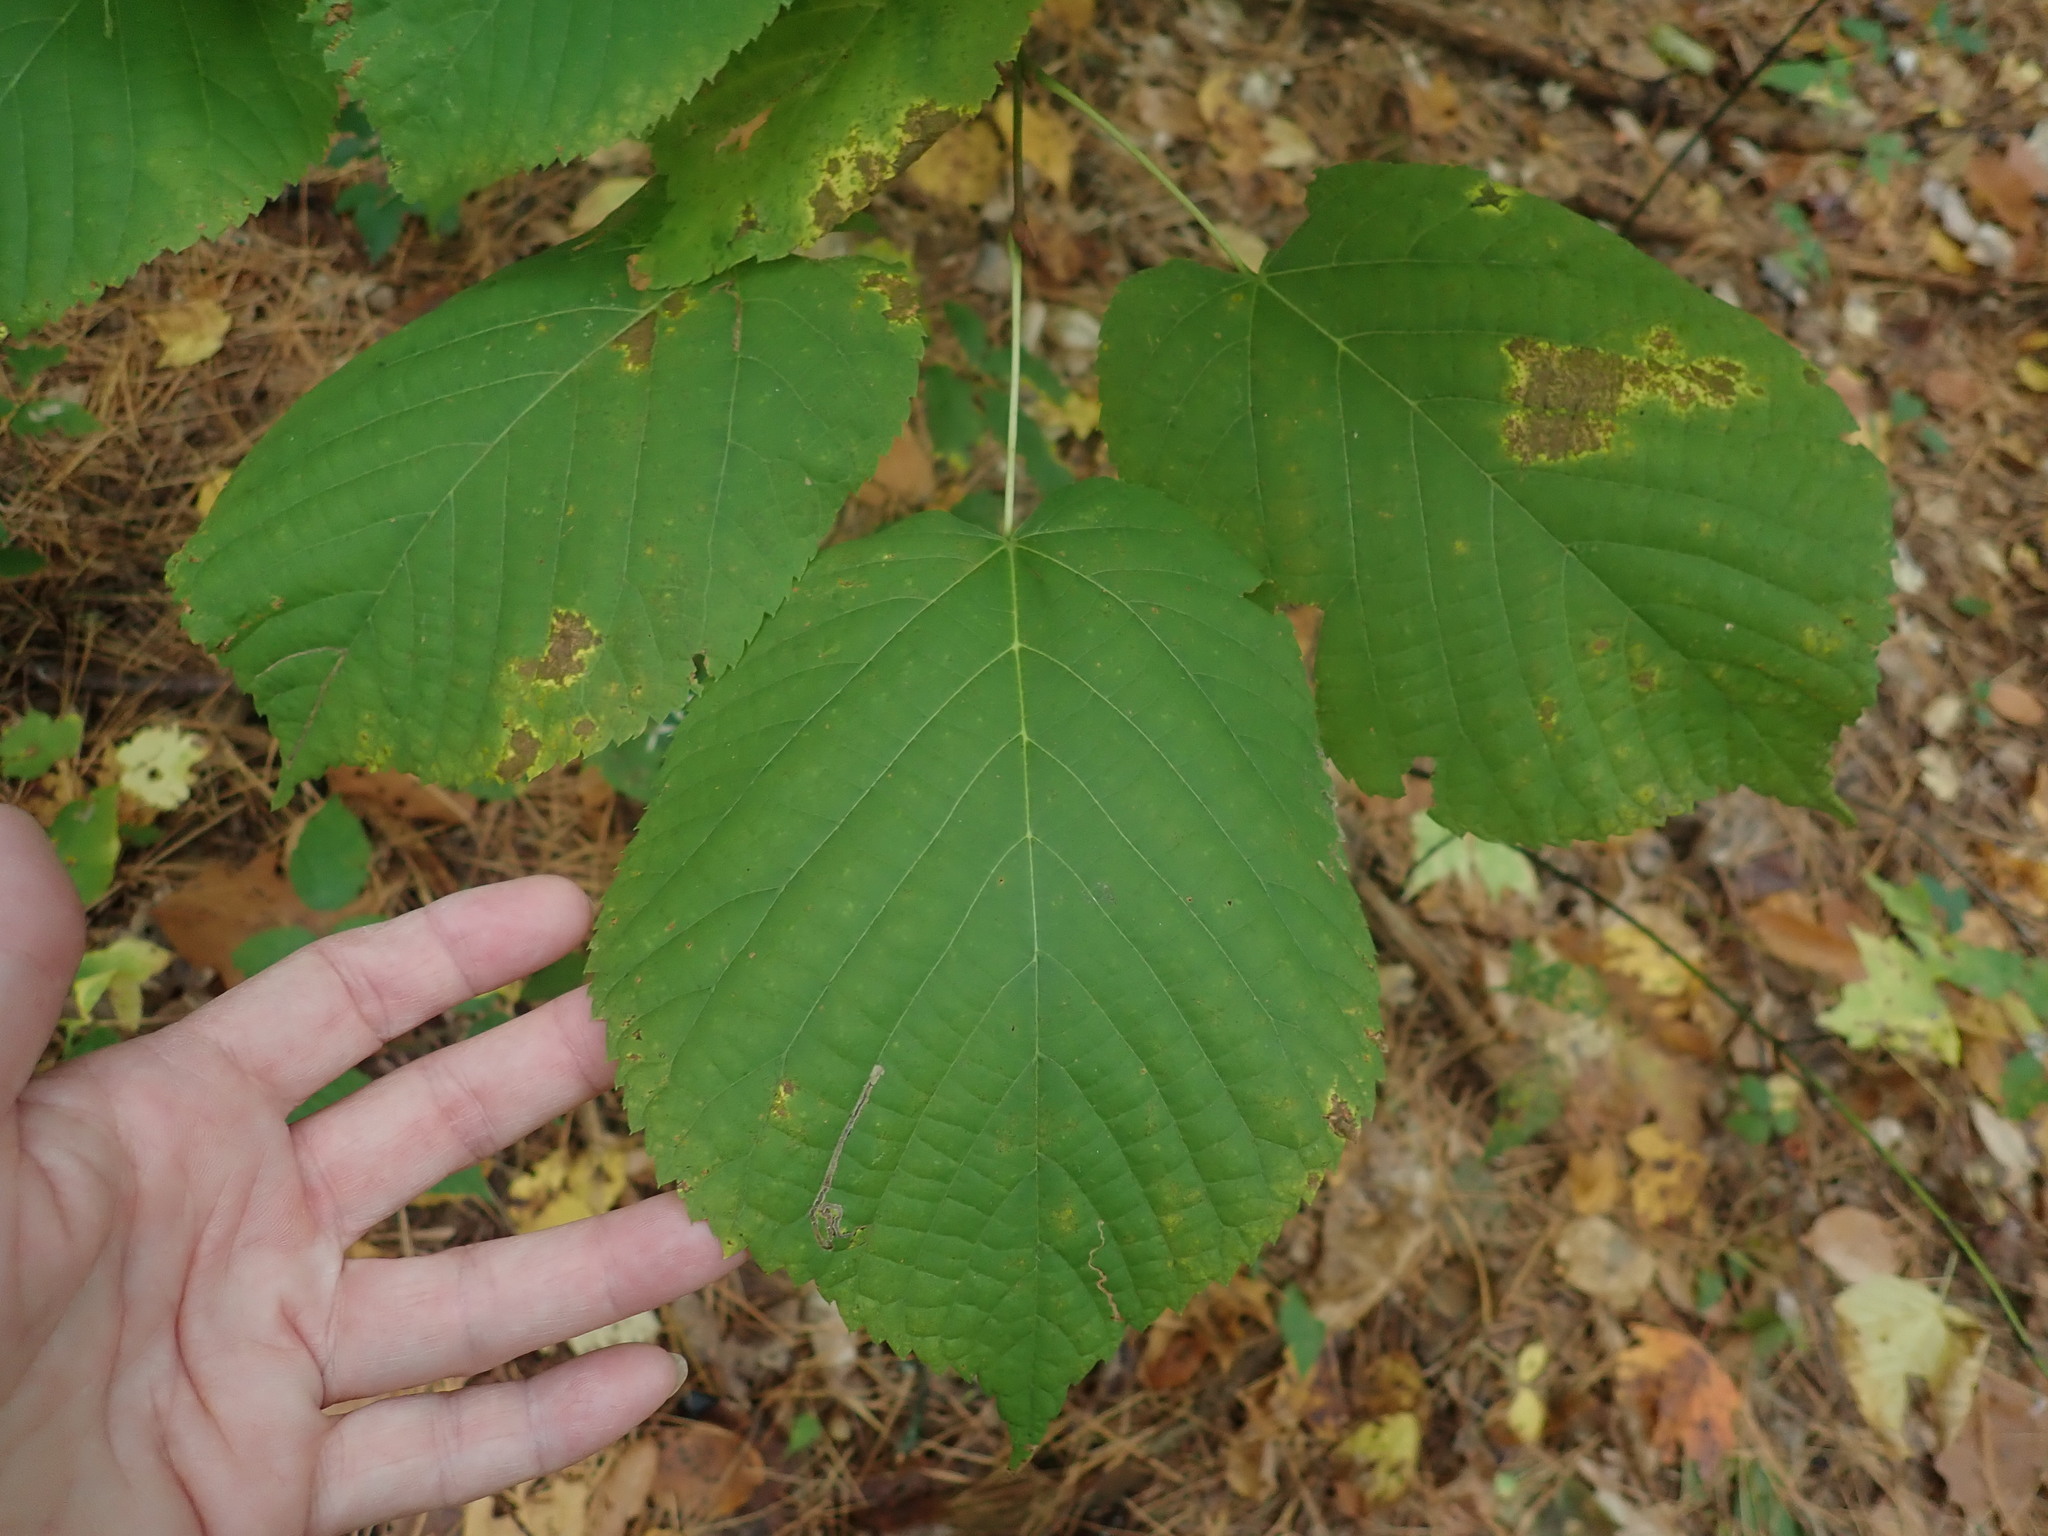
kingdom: Plantae
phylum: Tracheophyta
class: Magnoliopsida
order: Malvales
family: Malvaceae
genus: Tilia
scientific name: Tilia americana
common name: Basswood
